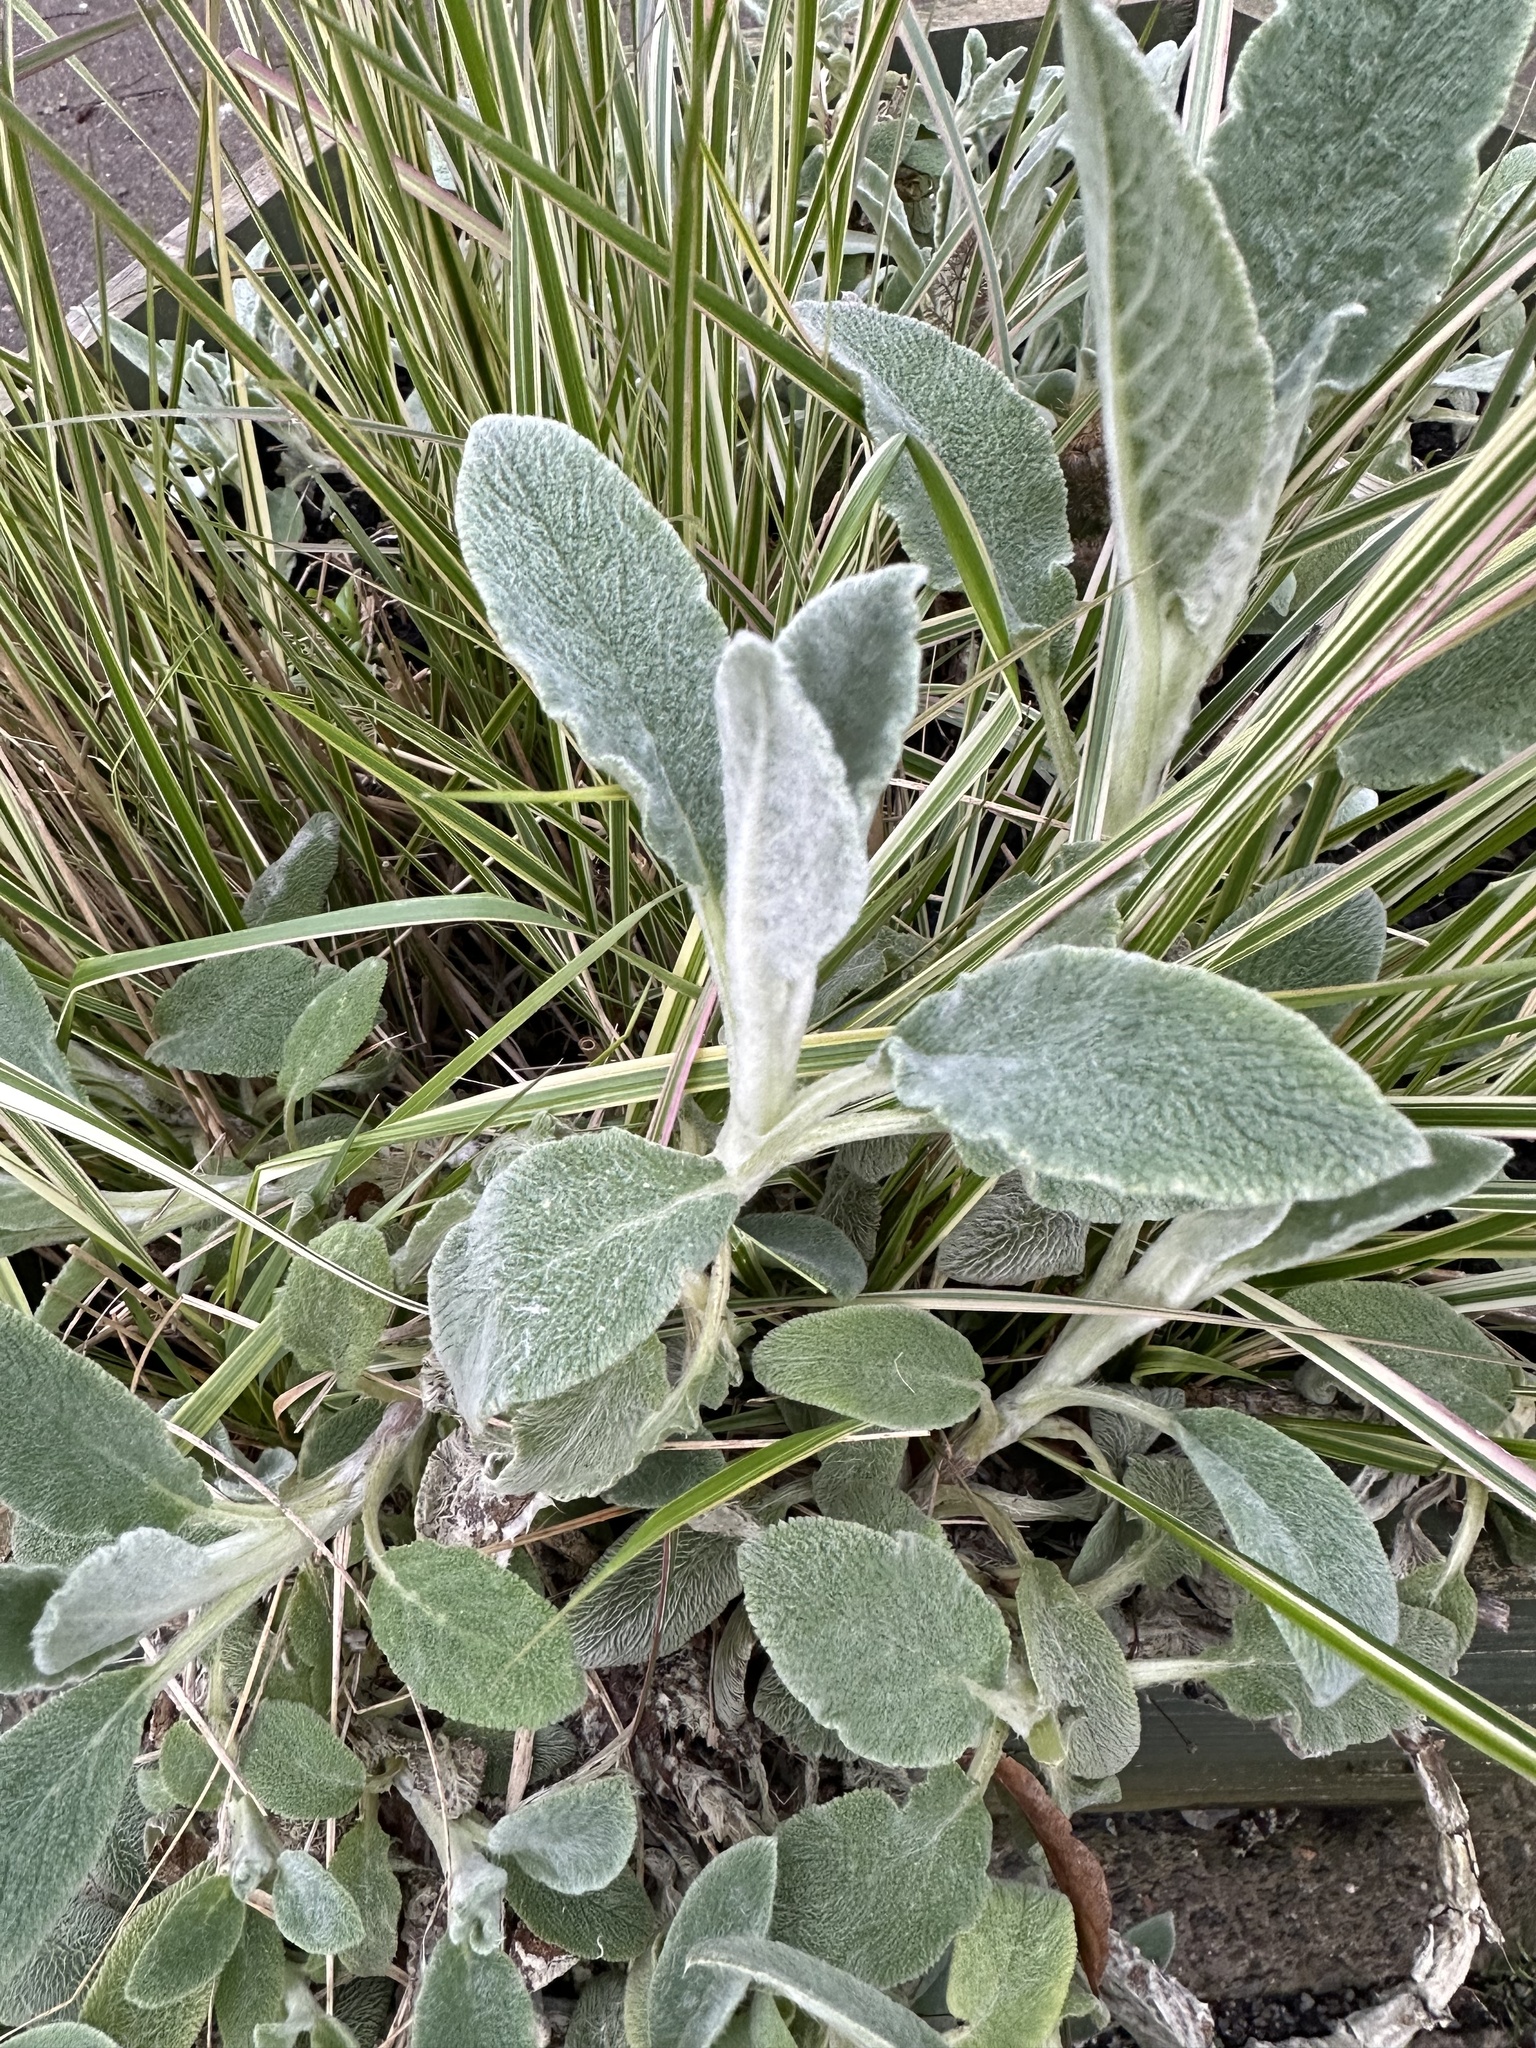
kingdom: Plantae
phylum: Tracheophyta
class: Magnoliopsida
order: Lamiales
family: Lamiaceae
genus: Stachys
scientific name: Stachys byzantina
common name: Lamb's-ear
